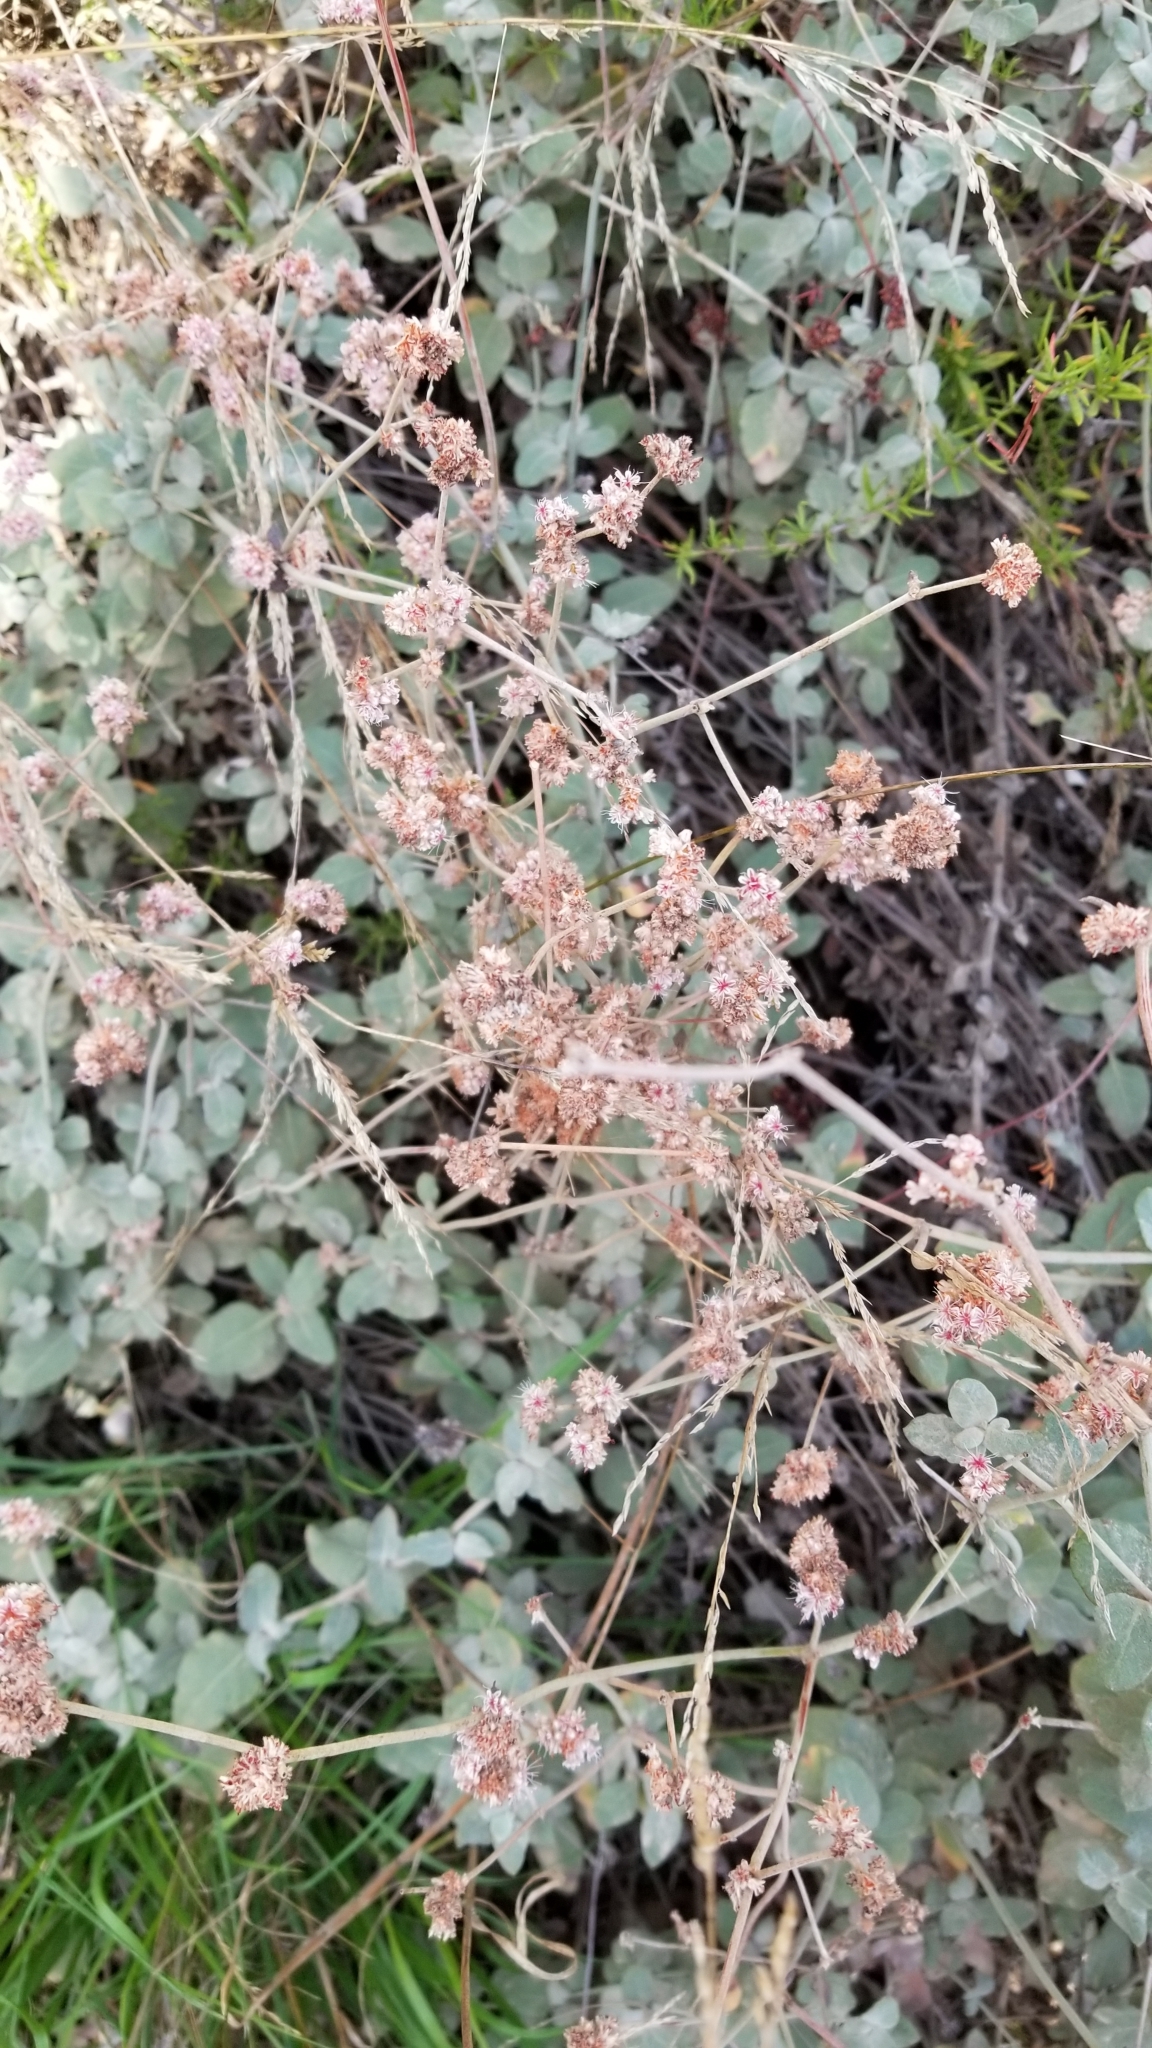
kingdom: Plantae
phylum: Tracheophyta
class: Magnoliopsida
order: Caryophyllales
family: Polygonaceae
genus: Eriogonum
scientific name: Eriogonum cinereum
